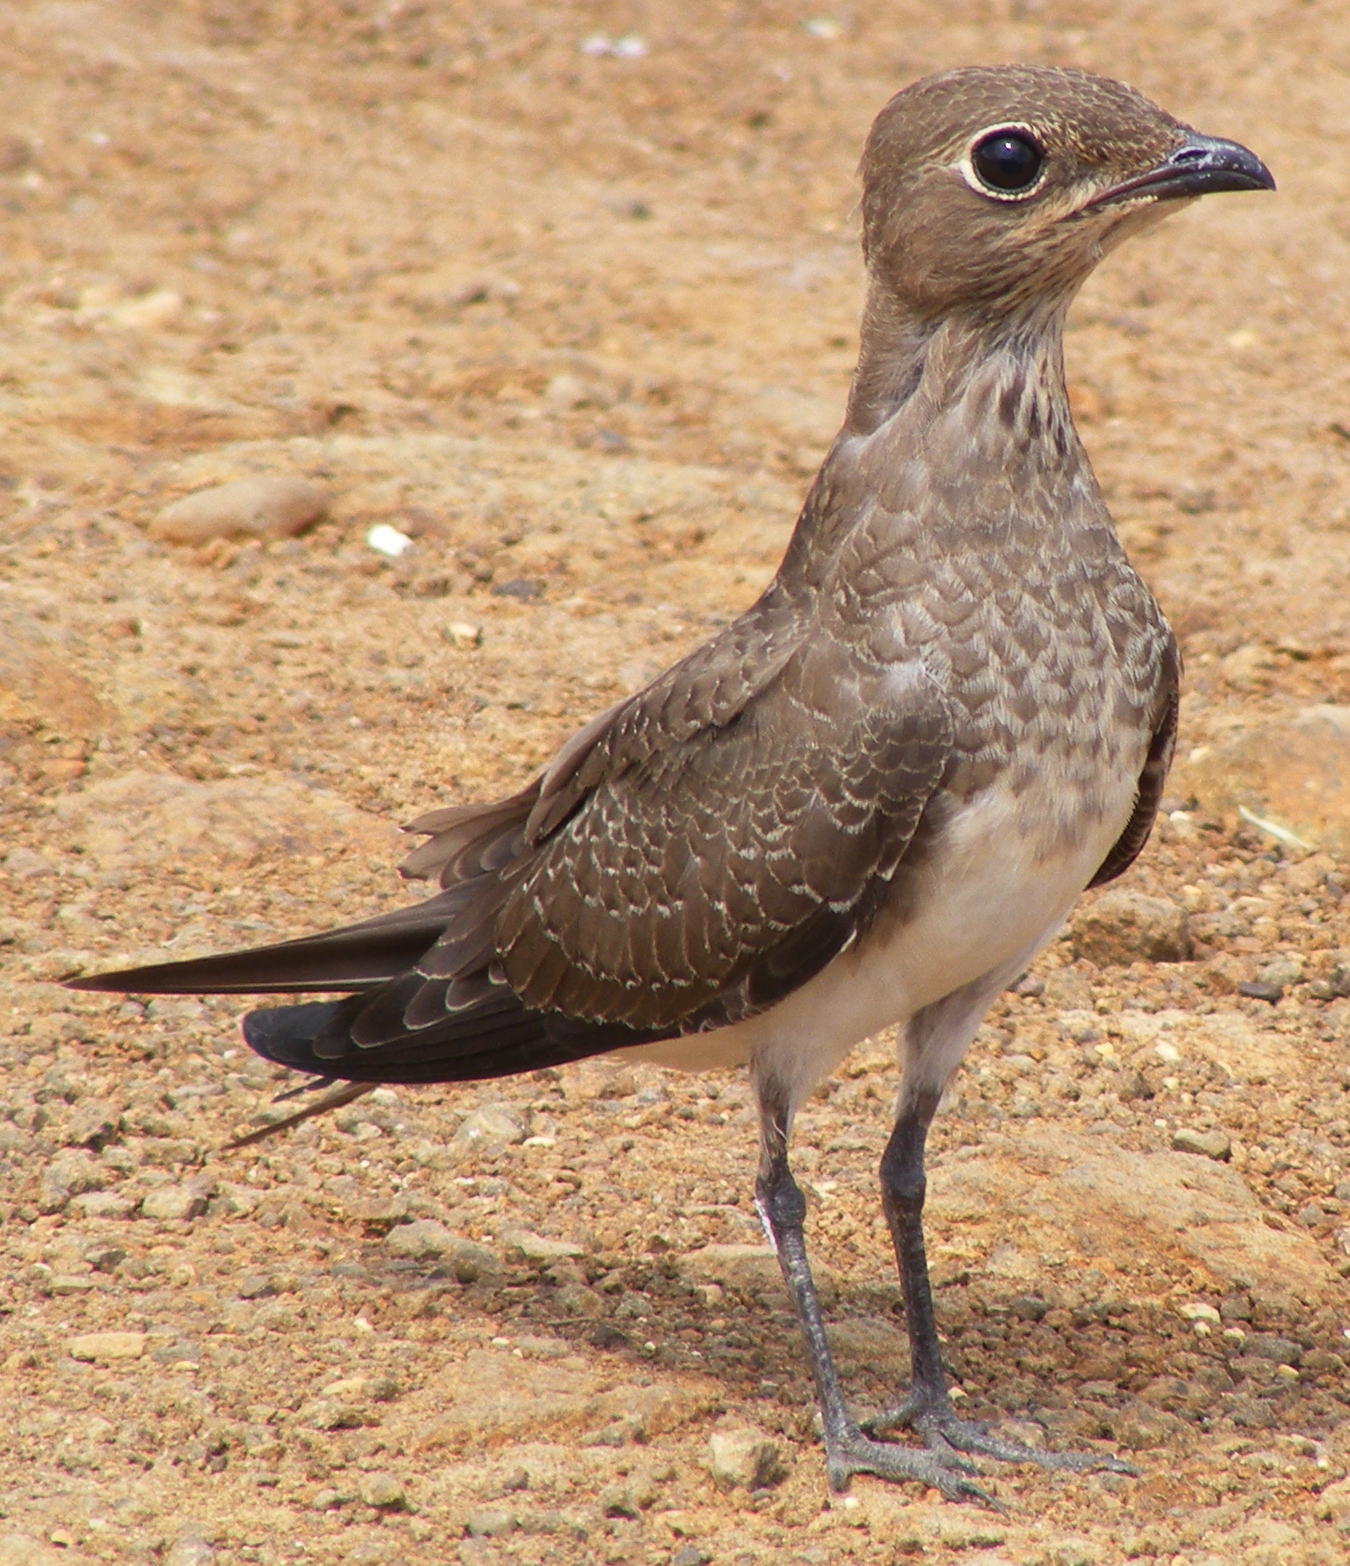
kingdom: Animalia
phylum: Chordata
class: Aves
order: Charadriiformes
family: Glareolidae
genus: Glareola
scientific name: Glareola pratincola
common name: Collared pratincole
